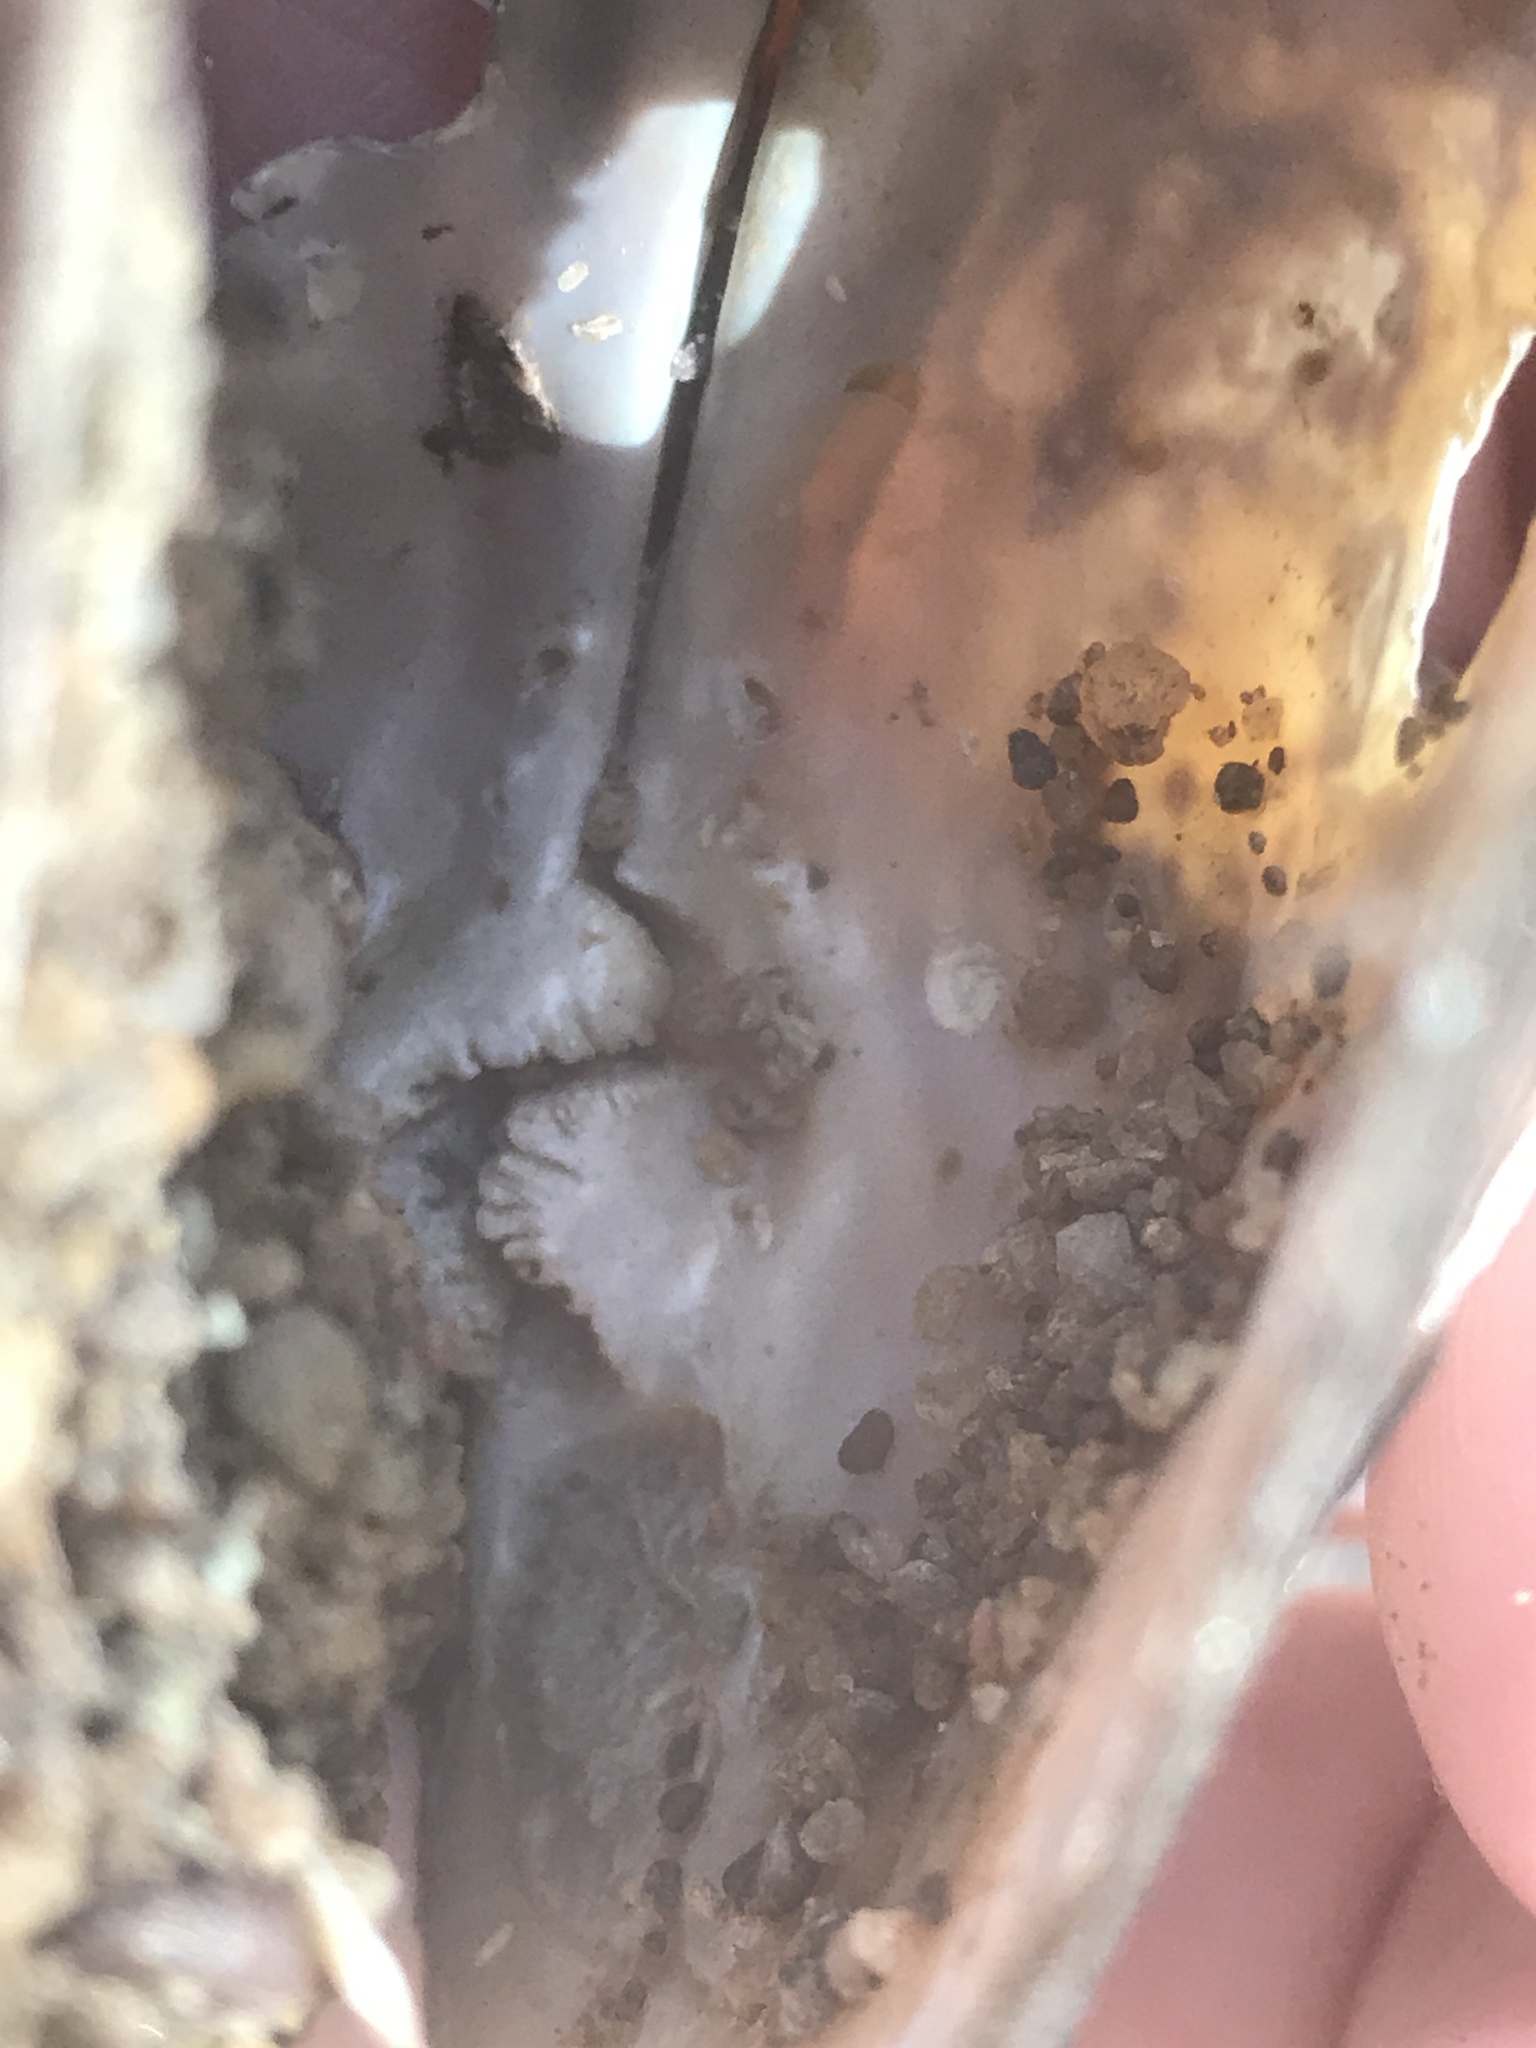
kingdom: Animalia
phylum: Mollusca
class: Bivalvia
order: Unionida
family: Unionidae
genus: Elliptio
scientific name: Elliptio complanata
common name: Eastern elliptio
